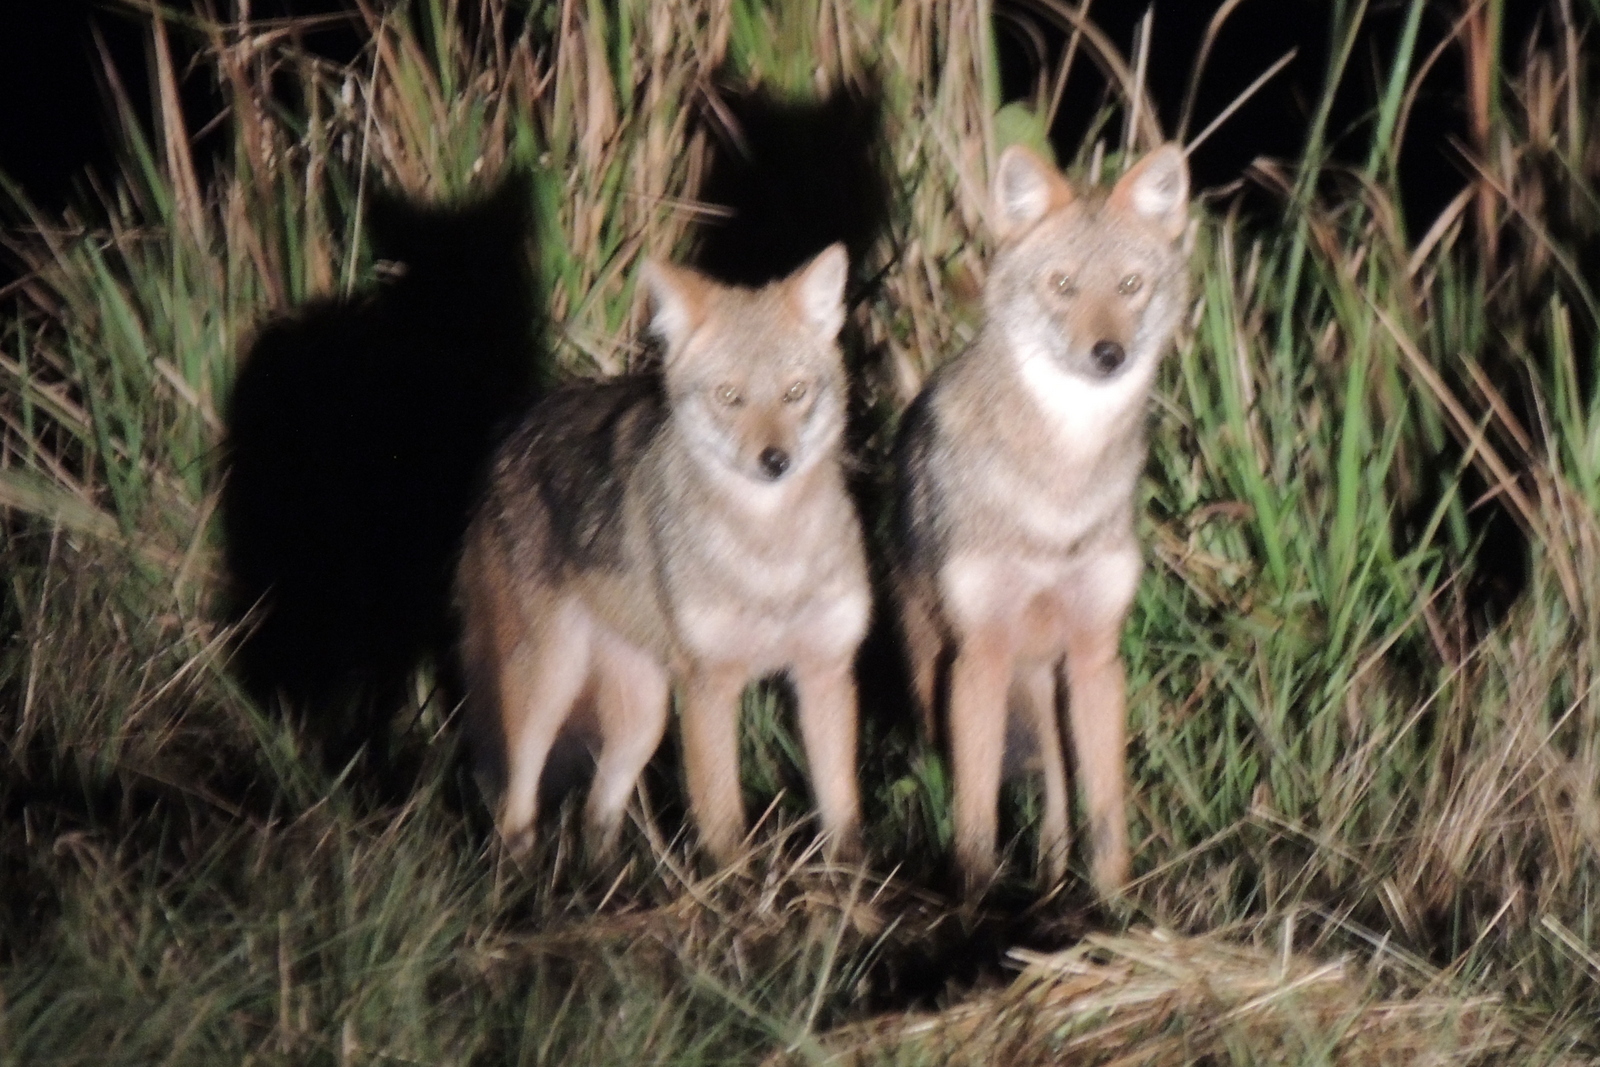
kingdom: Animalia
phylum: Chordata
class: Mammalia
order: Carnivora
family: Canidae
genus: Canis
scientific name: Canis aureus
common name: Golden jackal
